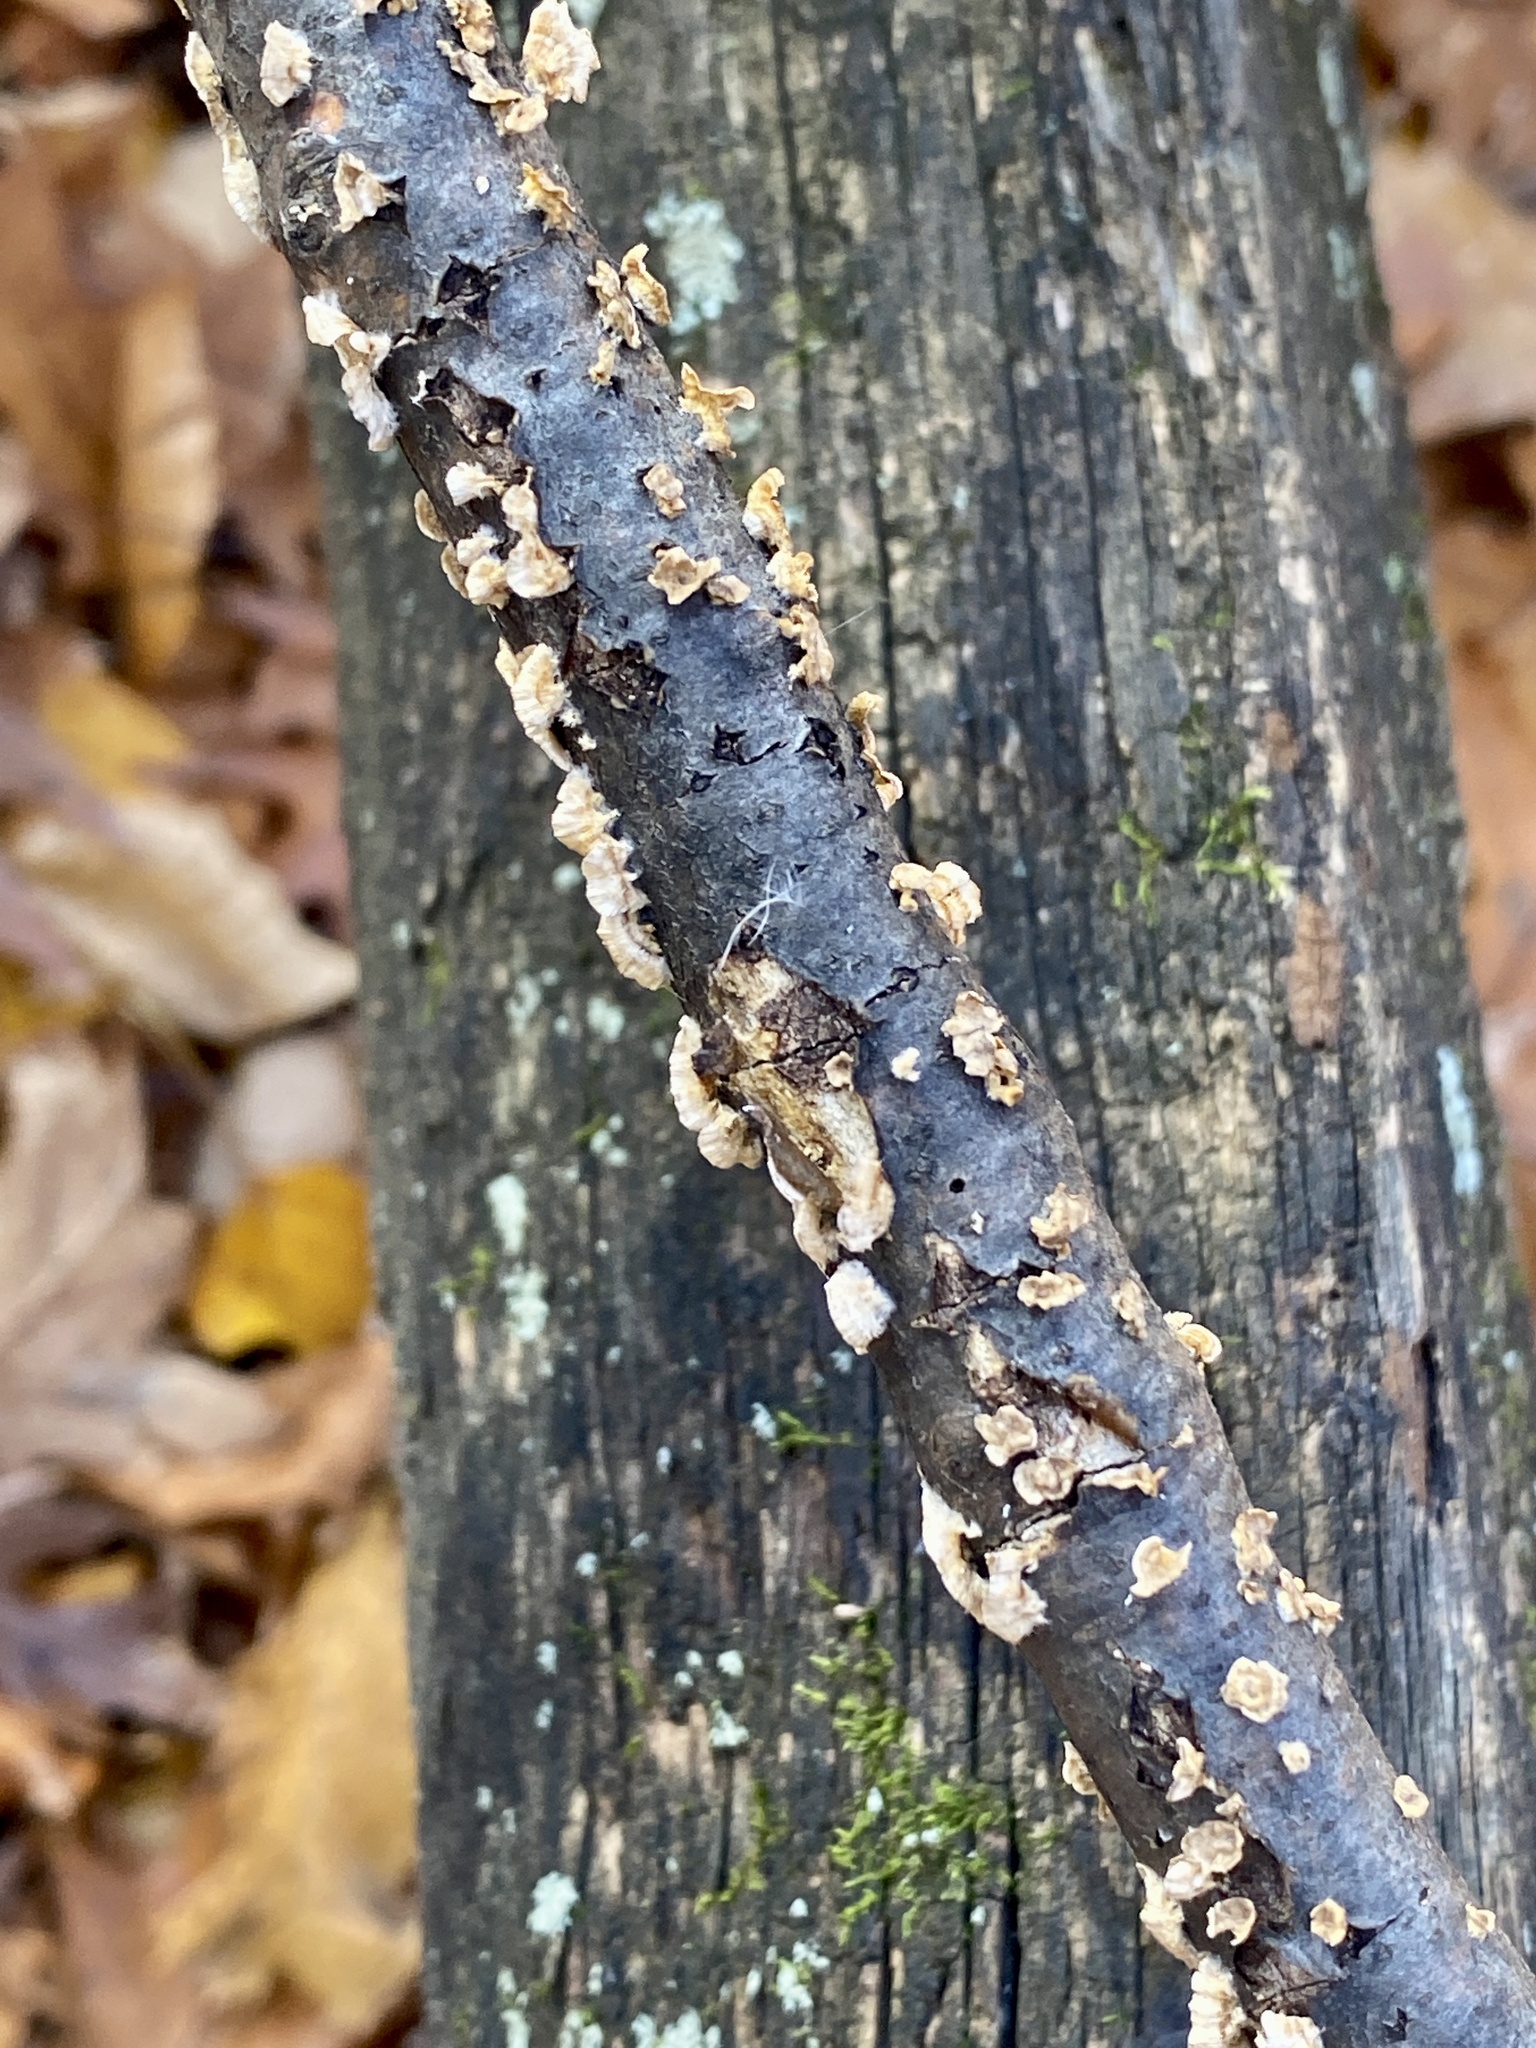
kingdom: Fungi
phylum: Basidiomycota
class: Agaricomycetes
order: Russulales
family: Stereaceae
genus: Stereum
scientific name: Stereum complicatum
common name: Crowded parchment
